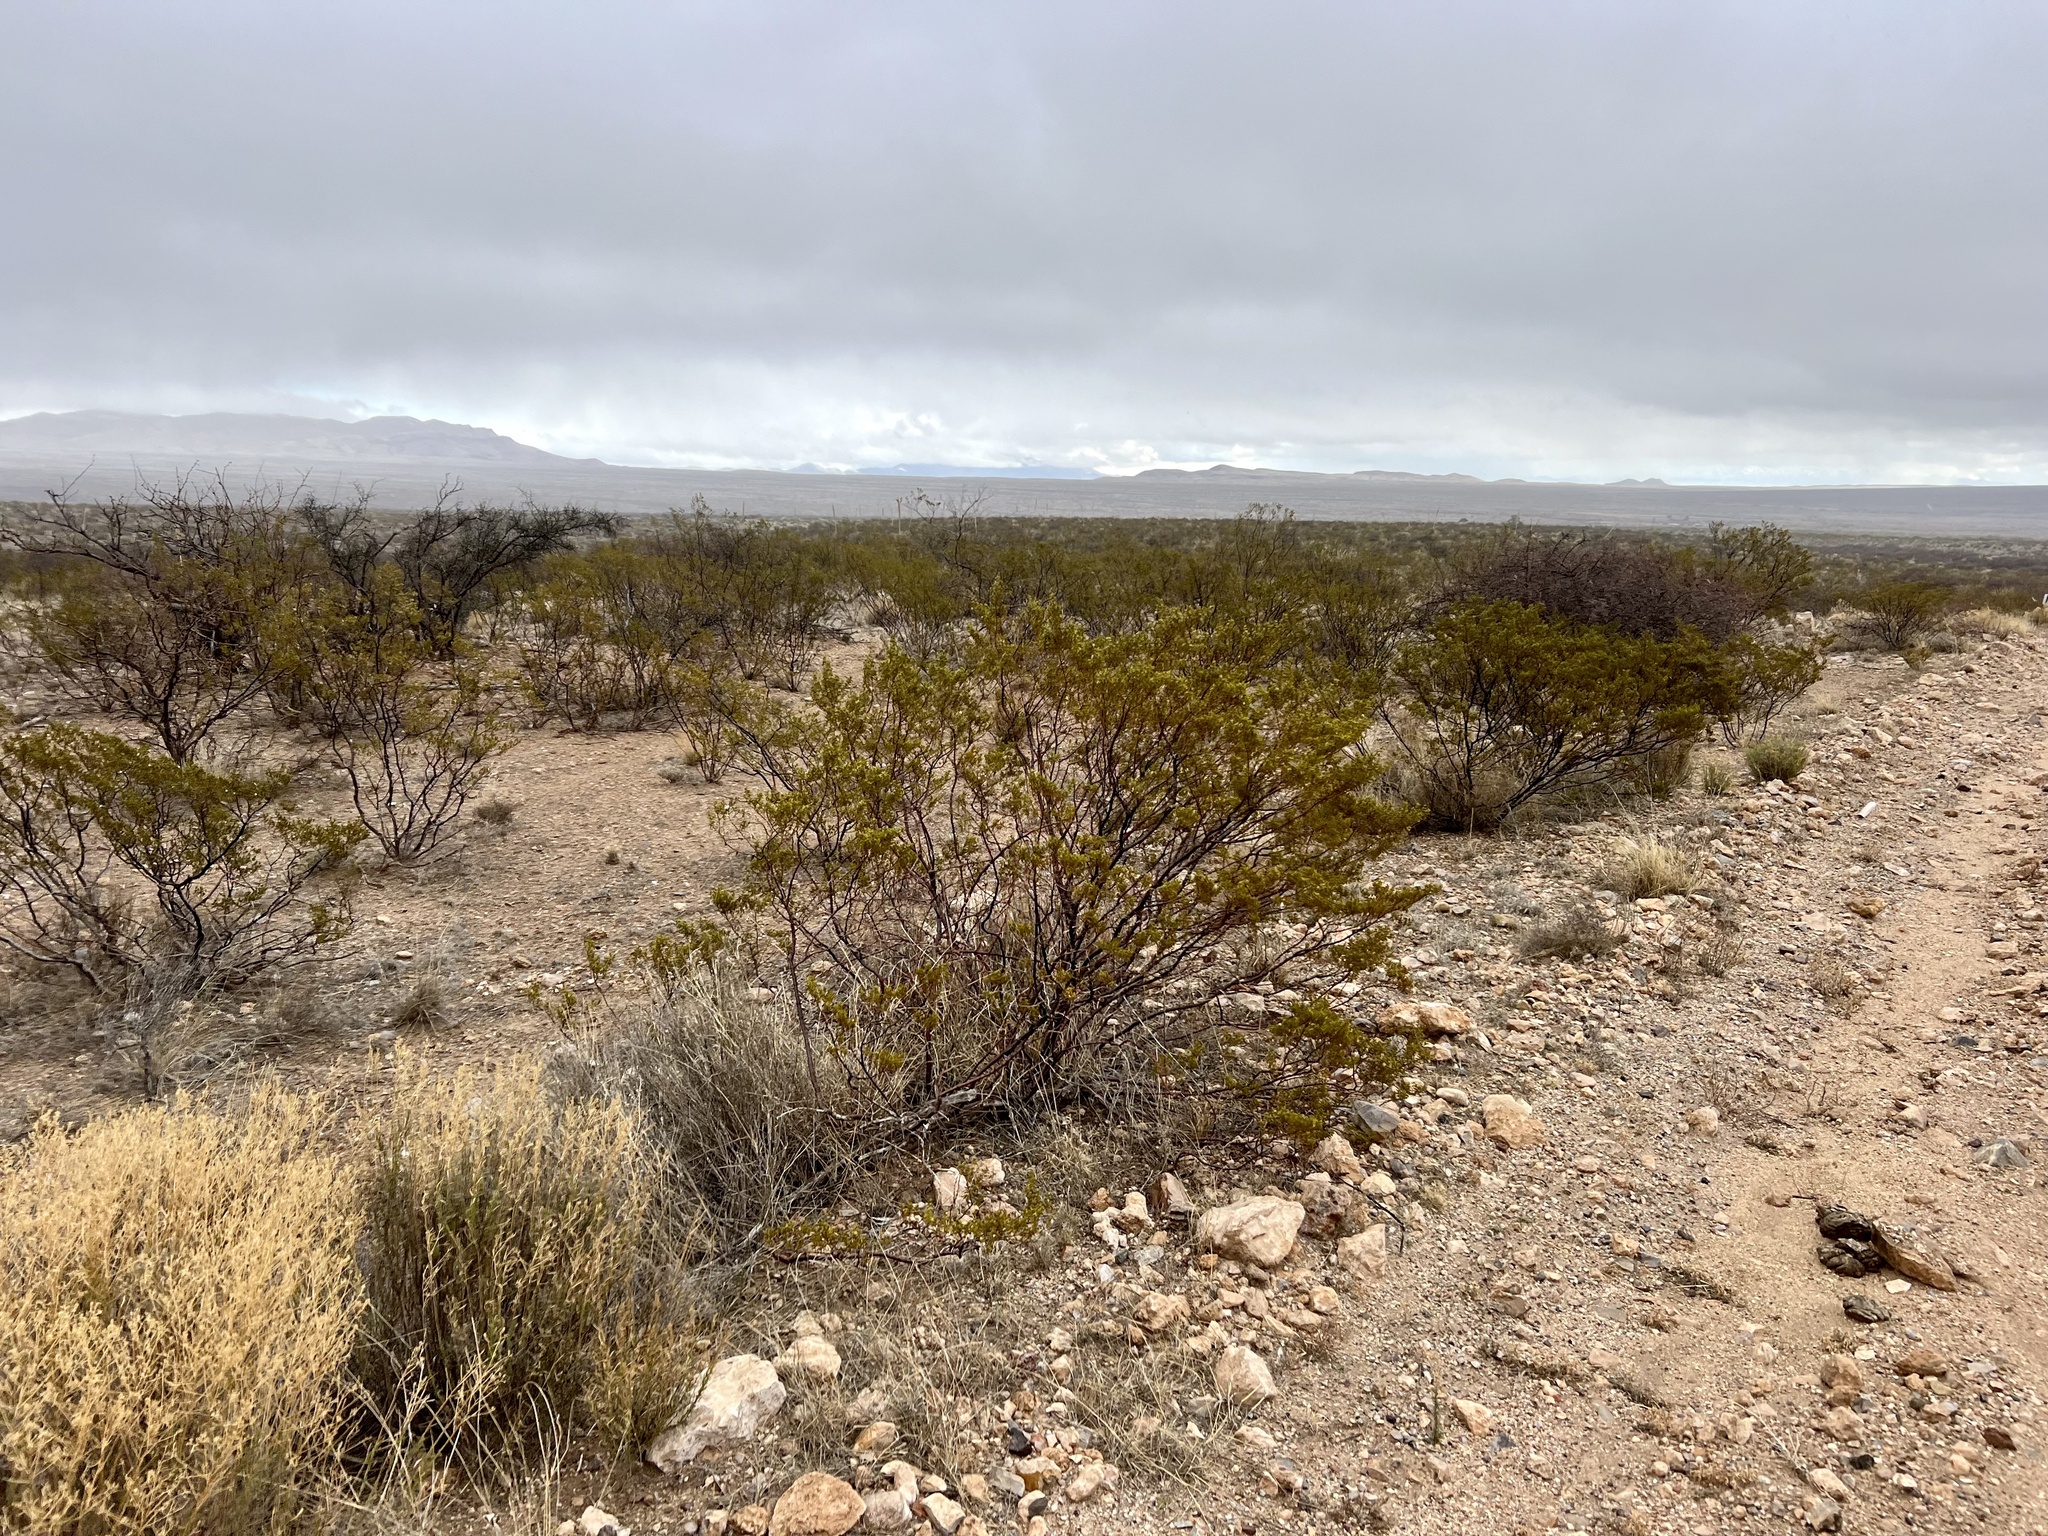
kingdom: Plantae
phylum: Tracheophyta
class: Magnoliopsida
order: Zygophyllales
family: Zygophyllaceae
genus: Larrea
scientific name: Larrea tridentata
